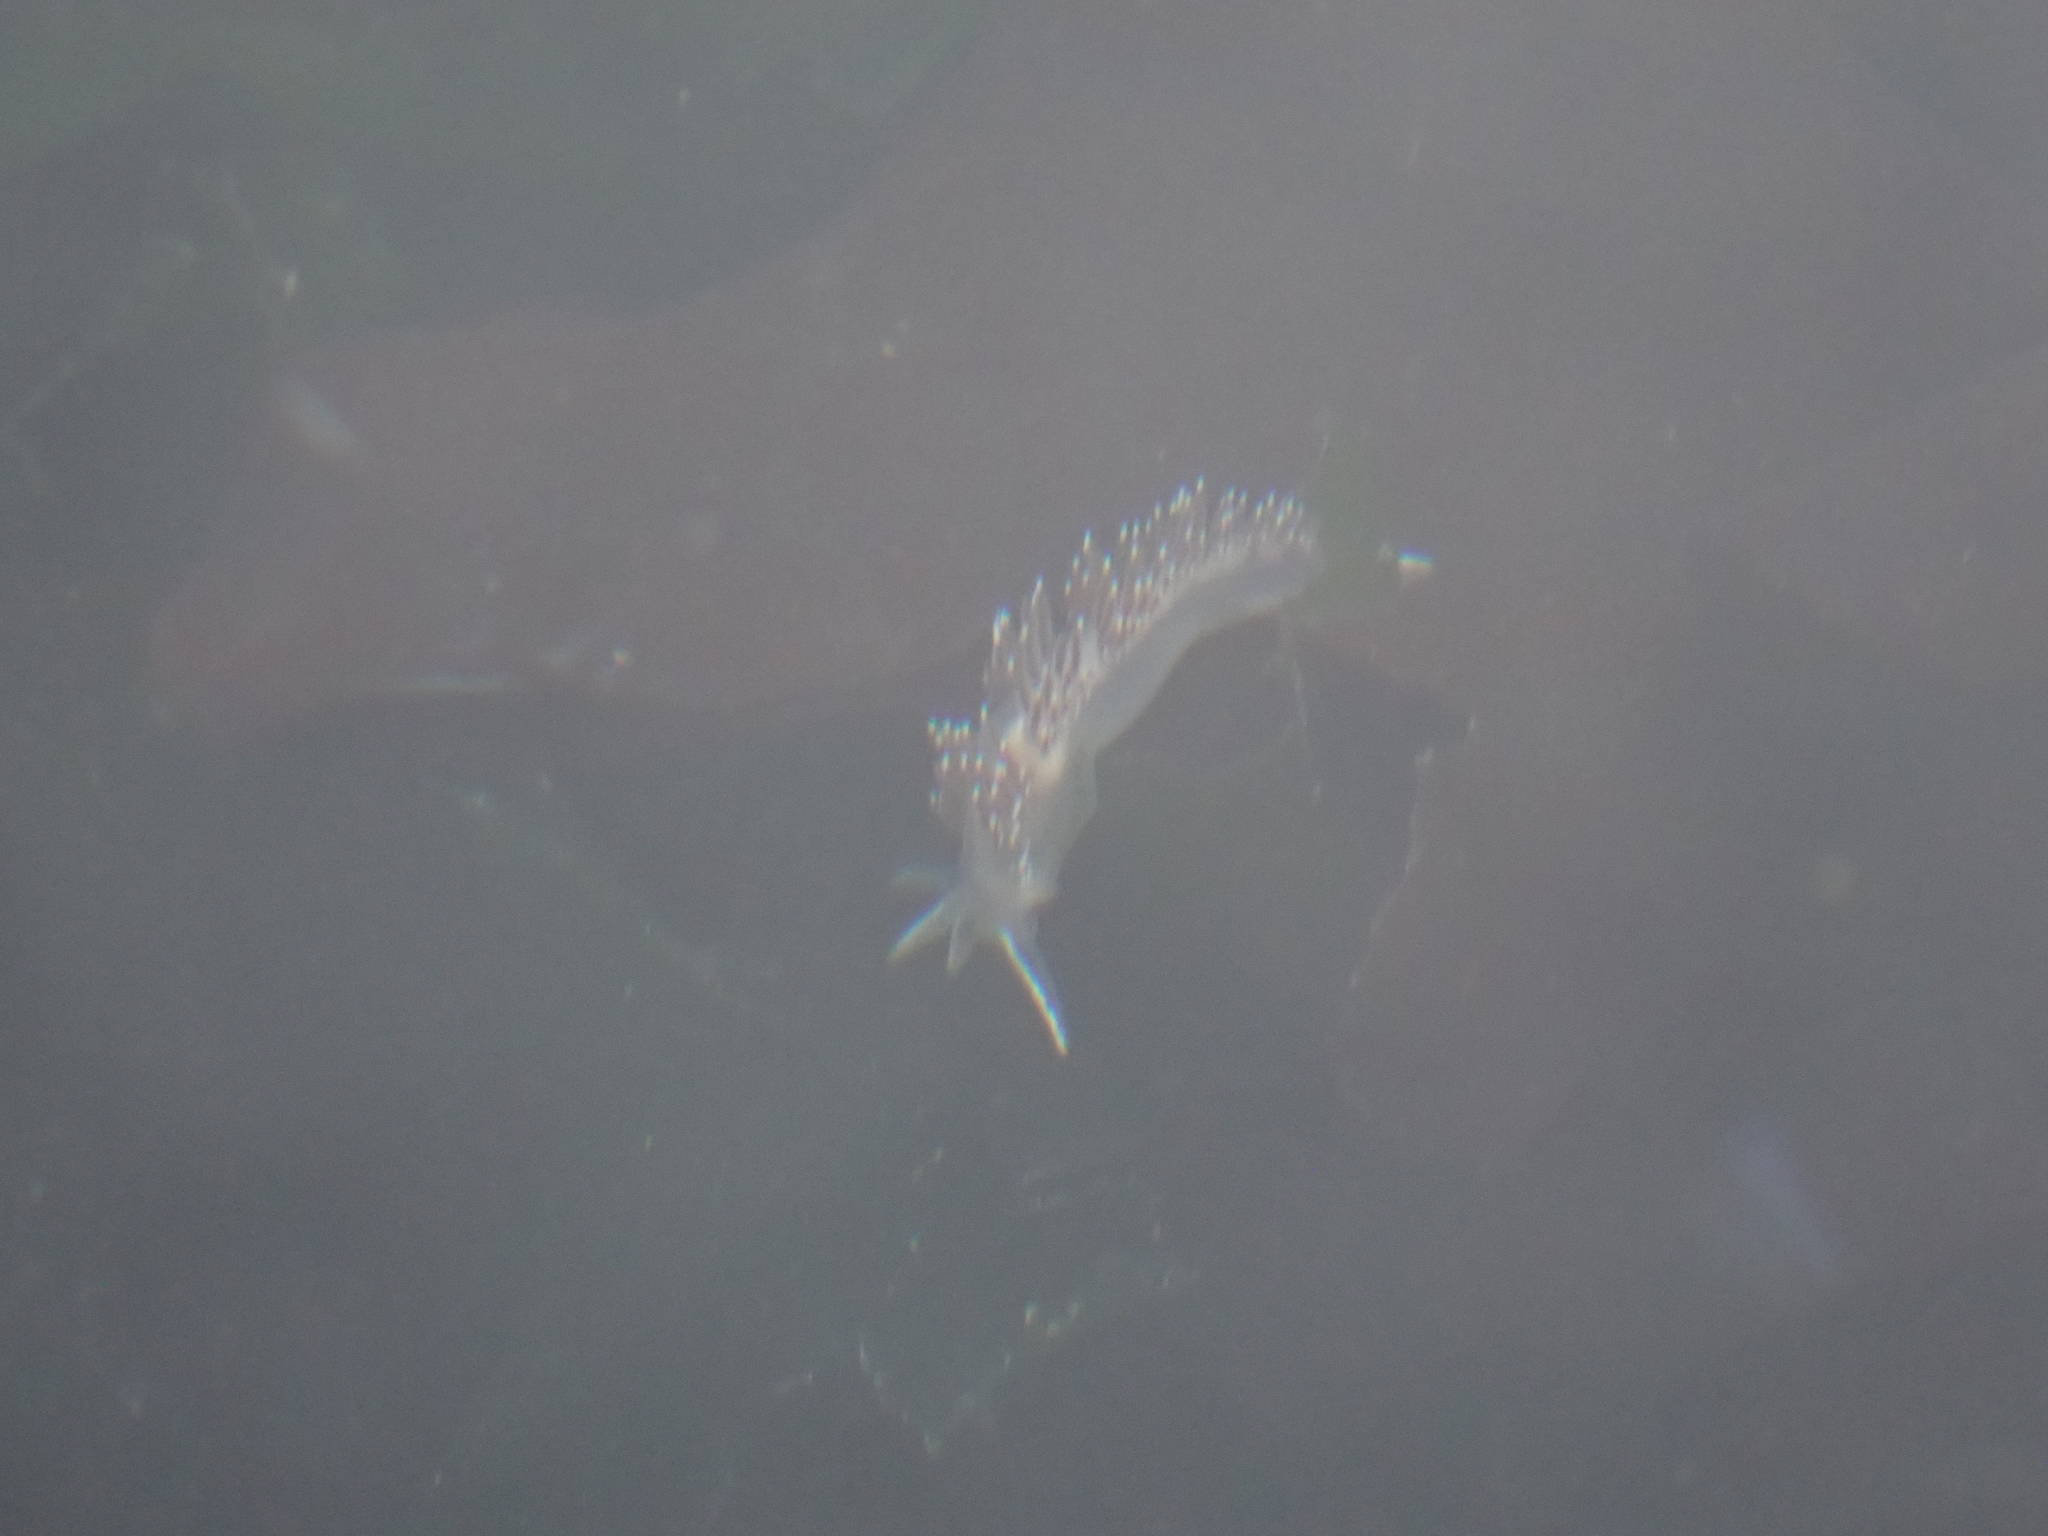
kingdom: Animalia
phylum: Mollusca
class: Gastropoda
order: Nudibranchia
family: Coryphellidae
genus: Coryphella
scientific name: Coryphella verrucosa
